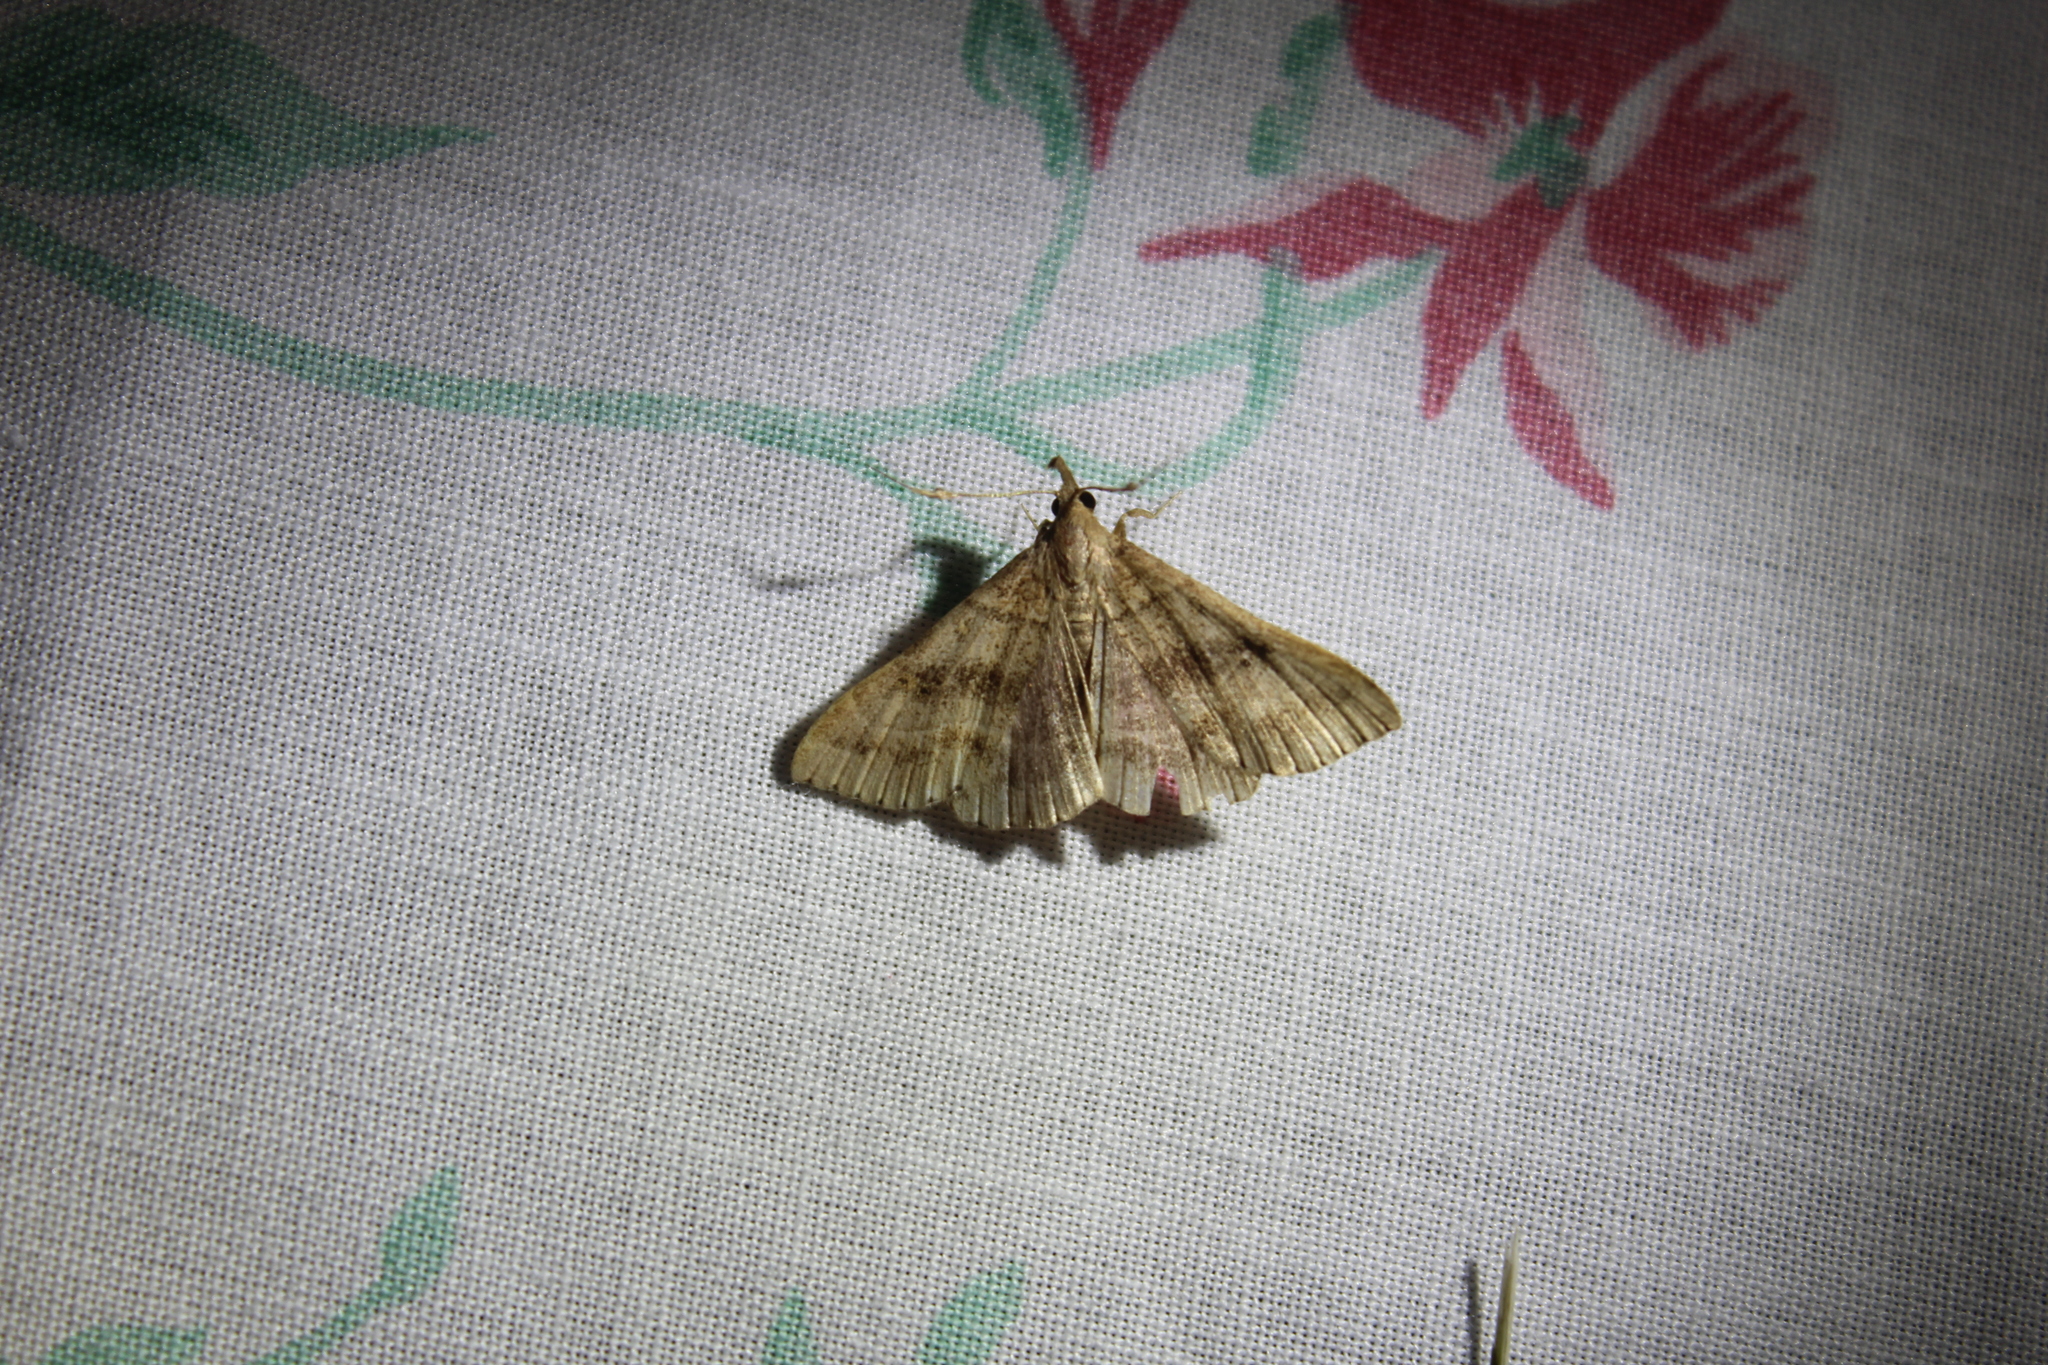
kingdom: Animalia
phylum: Arthropoda
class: Insecta
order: Lepidoptera
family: Erebidae
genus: Renia
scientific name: Renia flavipunctalis
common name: Yellow-spotted renia moth
